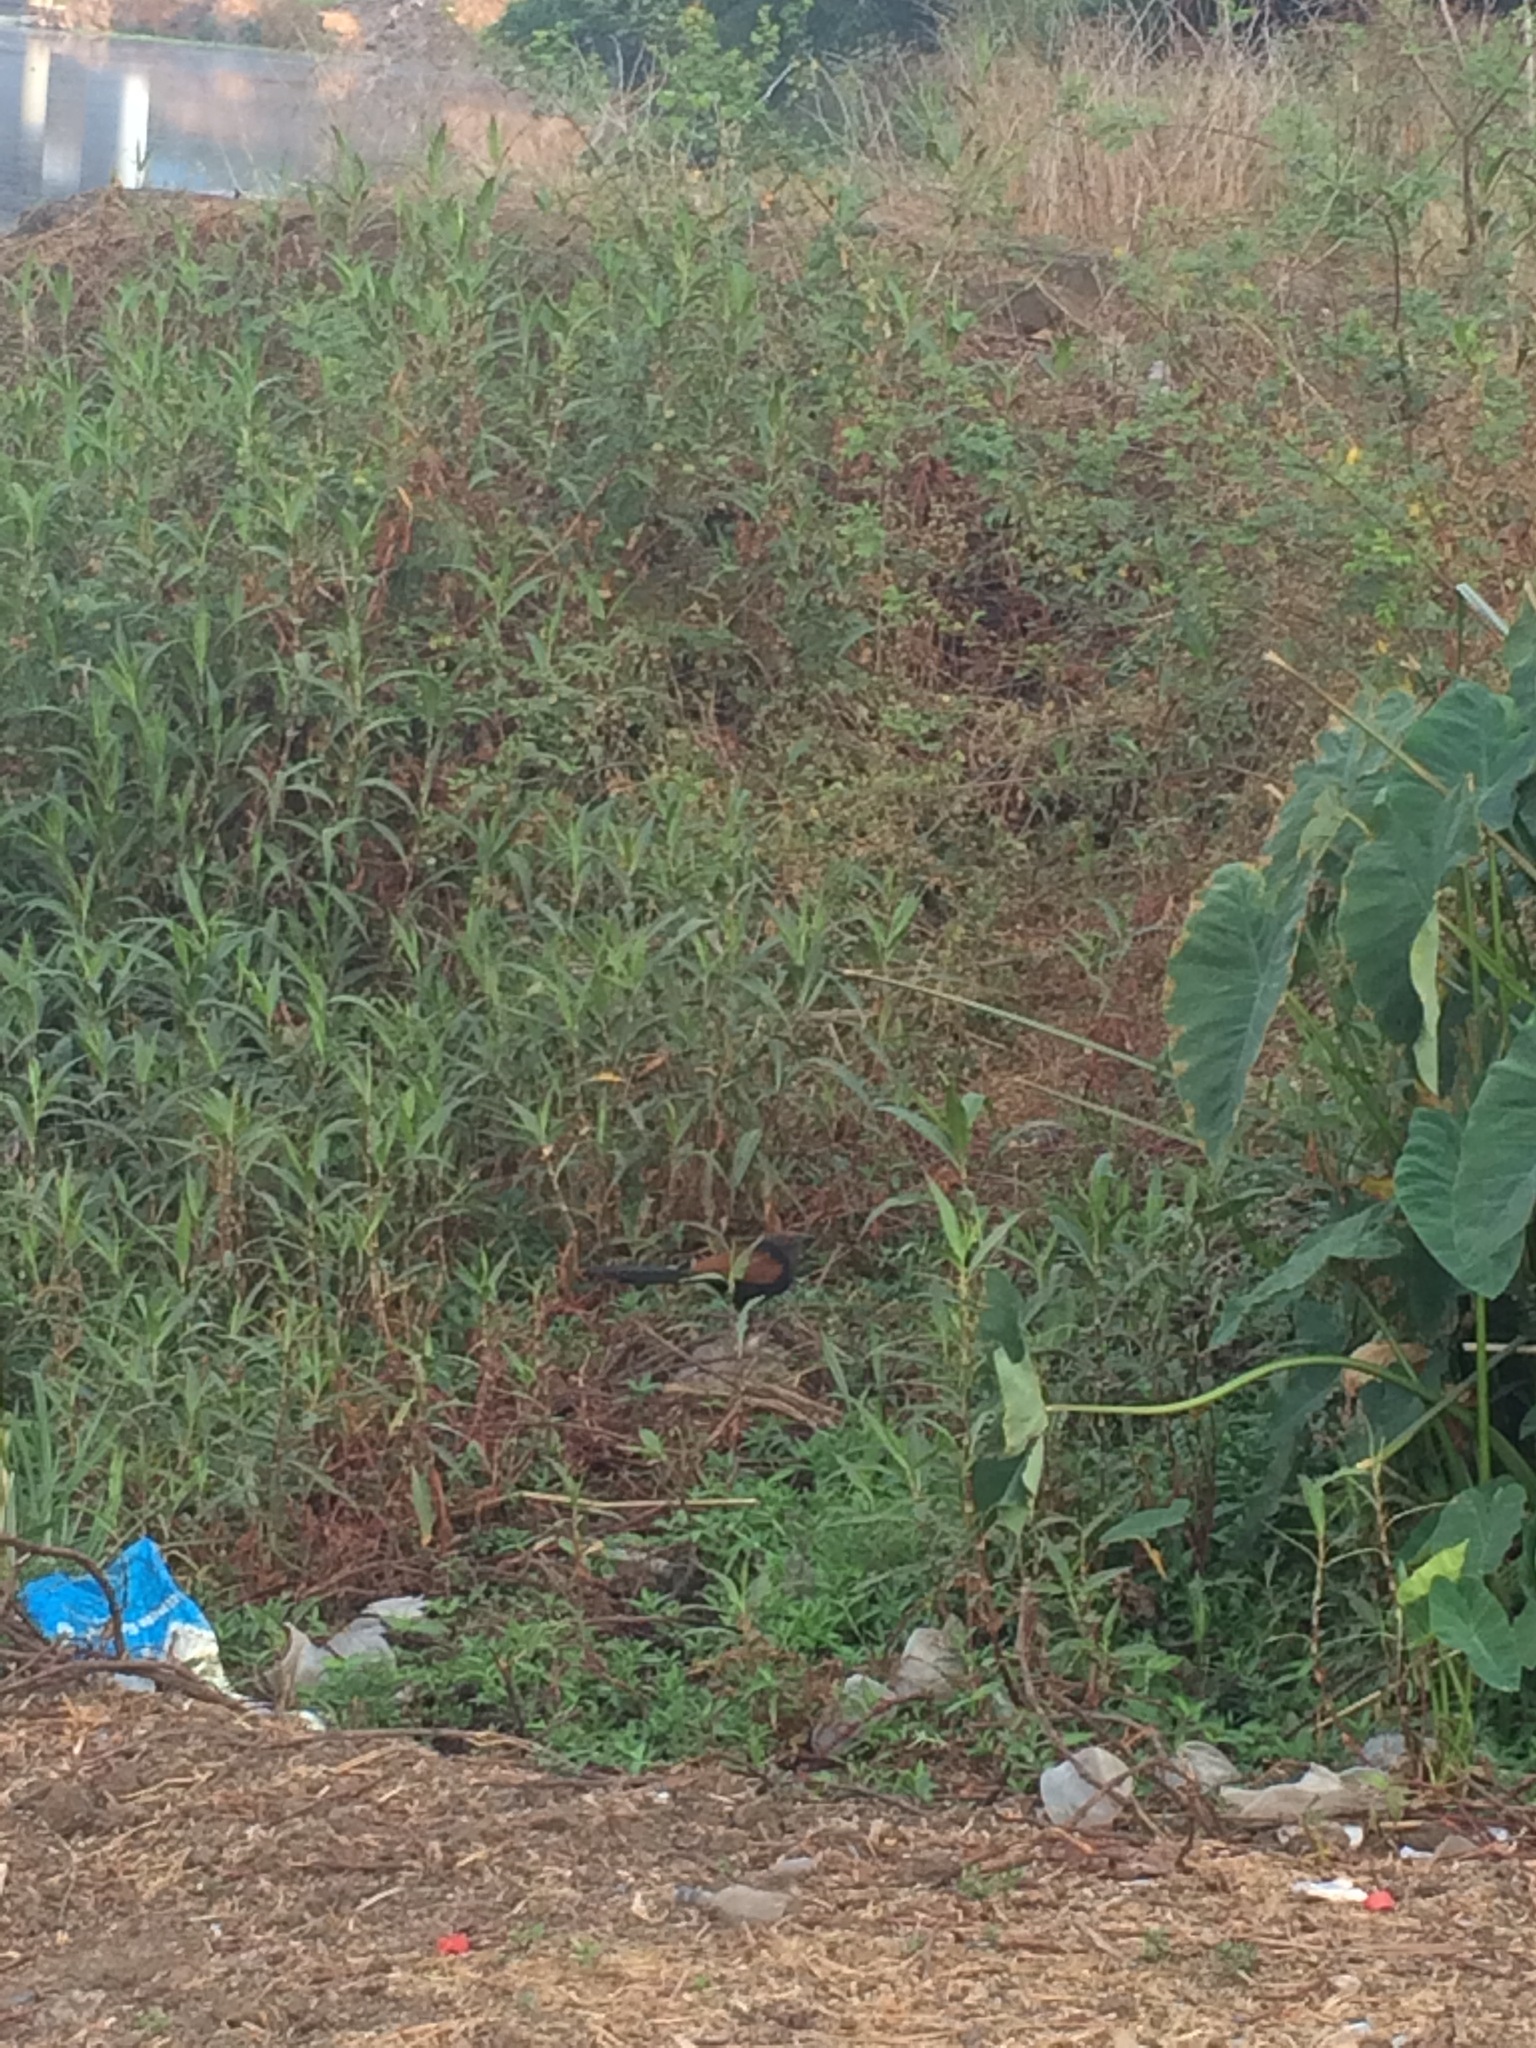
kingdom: Animalia
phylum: Chordata
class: Aves
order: Cuculiformes
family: Cuculidae
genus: Centropus
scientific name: Centropus sinensis
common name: Greater coucal
